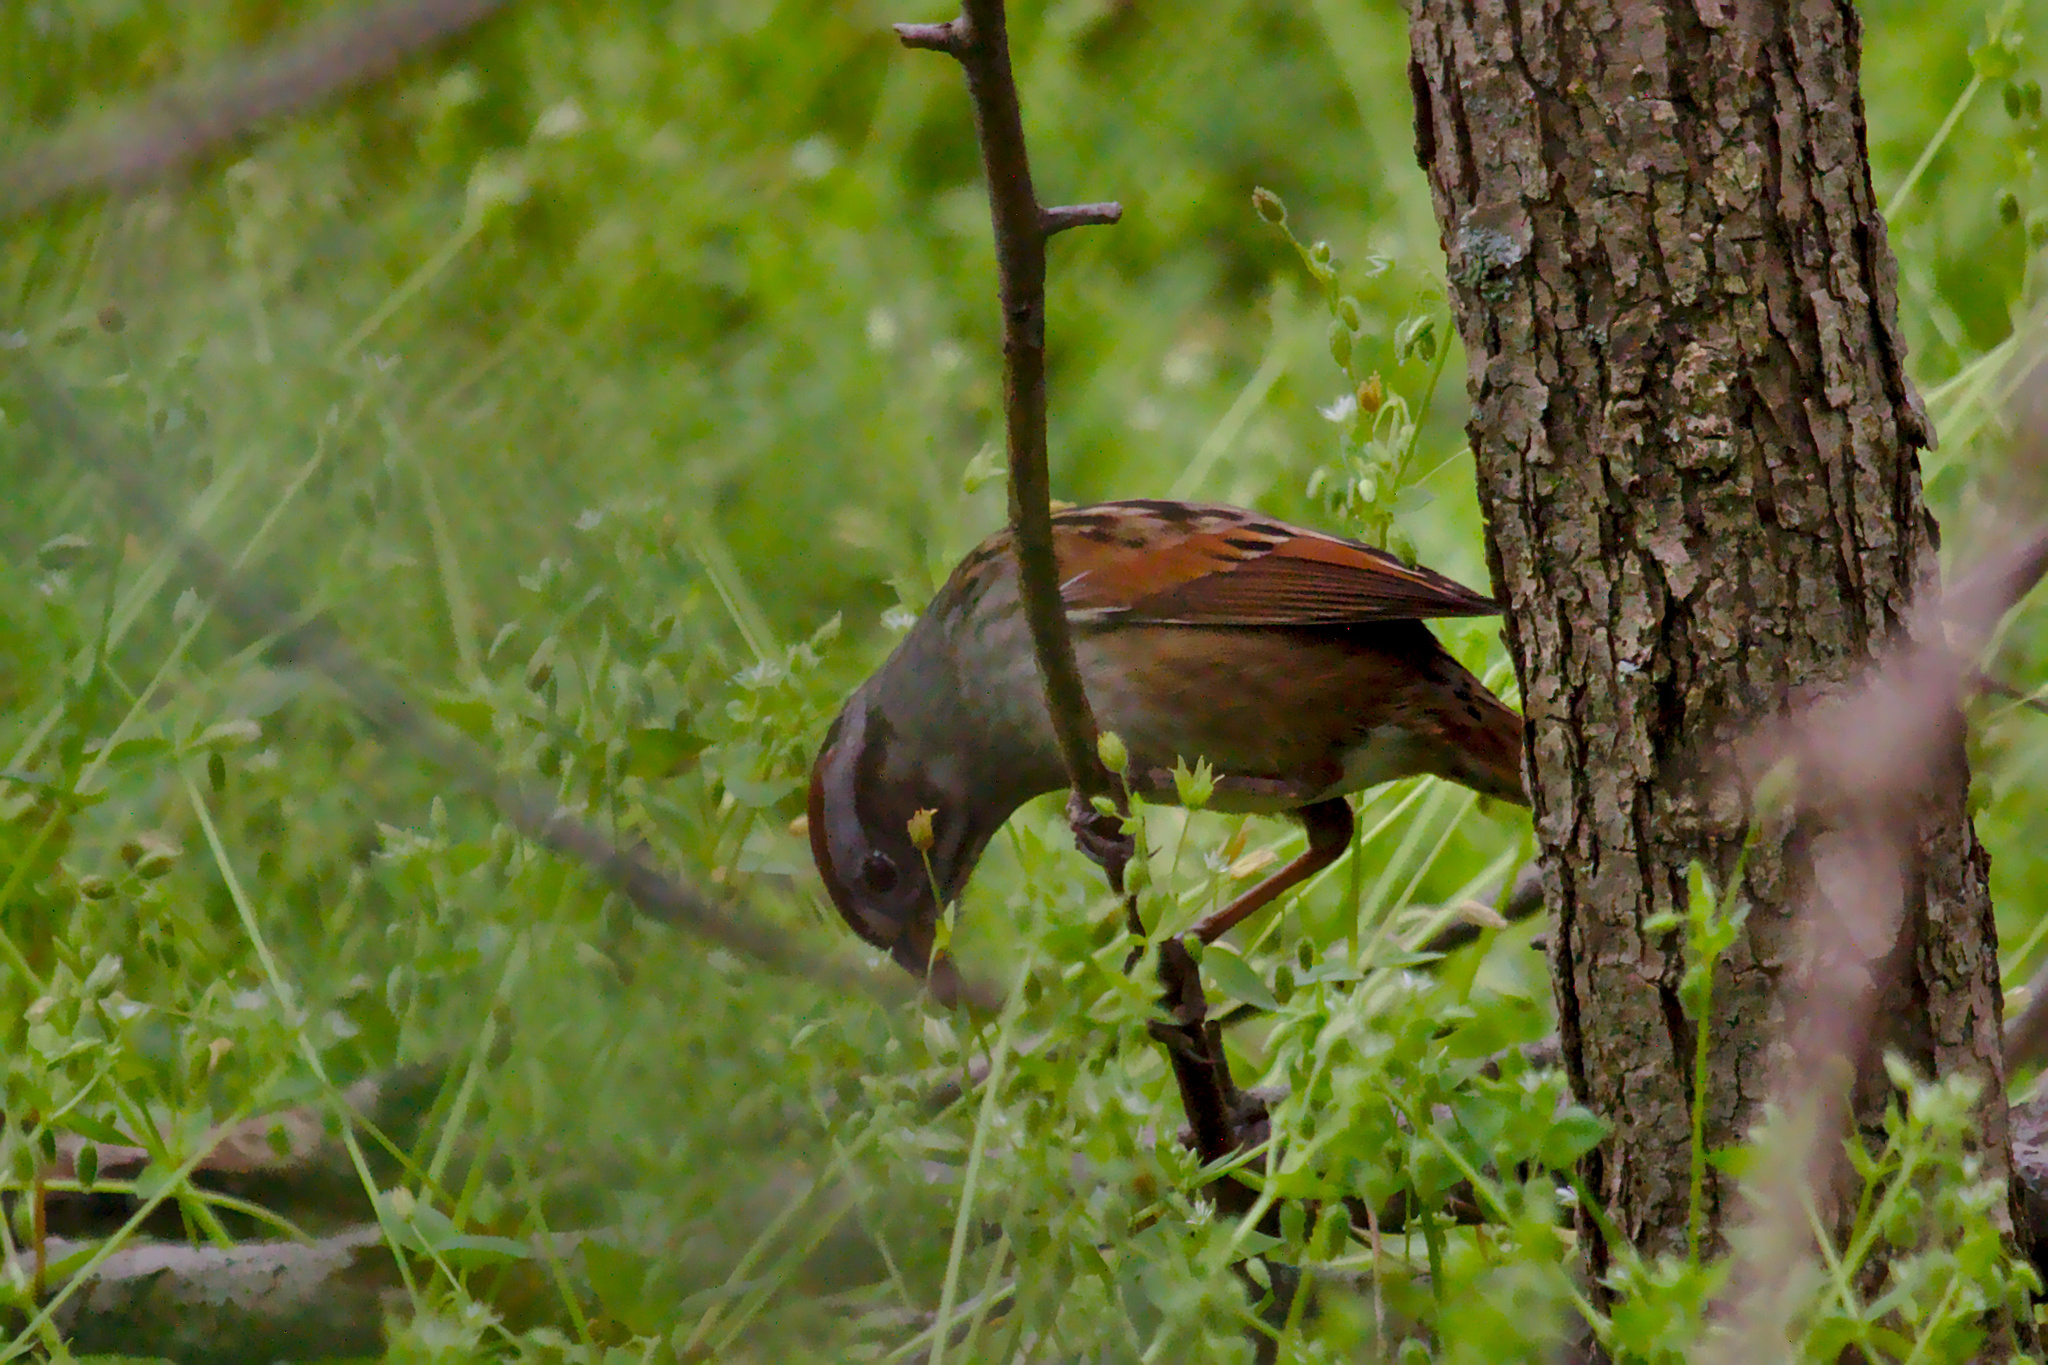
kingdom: Animalia
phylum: Chordata
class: Aves
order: Passeriformes
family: Passerellidae
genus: Melospiza
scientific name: Melospiza georgiana
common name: Swamp sparrow
